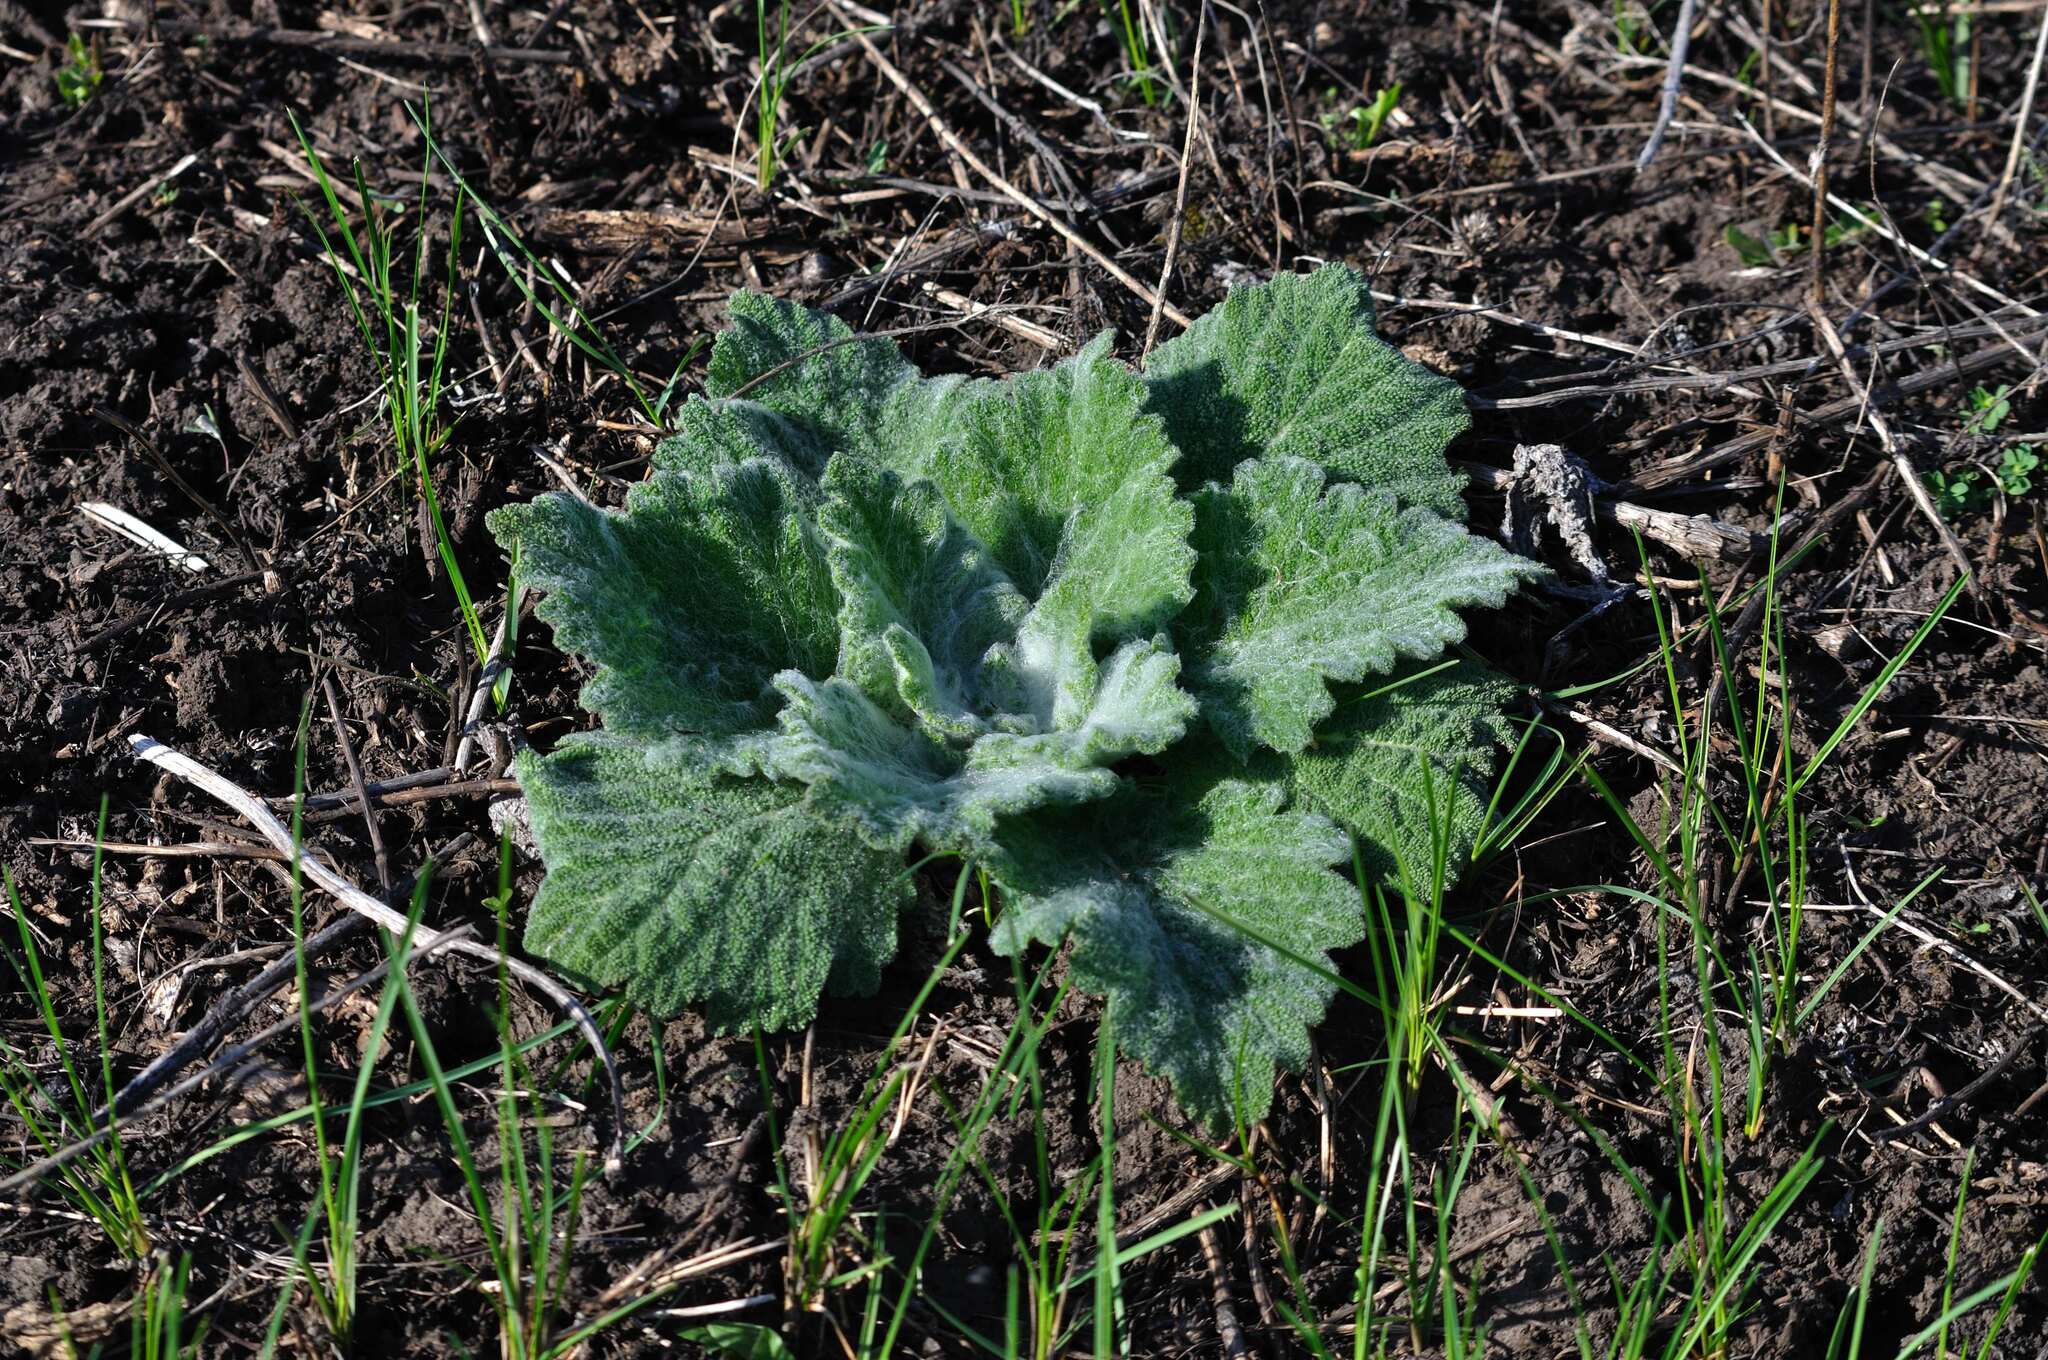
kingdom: Plantae
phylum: Tracheophyta
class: Magnoliopsida
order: Lamiales
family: Lamiaceae
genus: Salvia
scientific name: Salvia aethiopis
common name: Mediterranean sage
